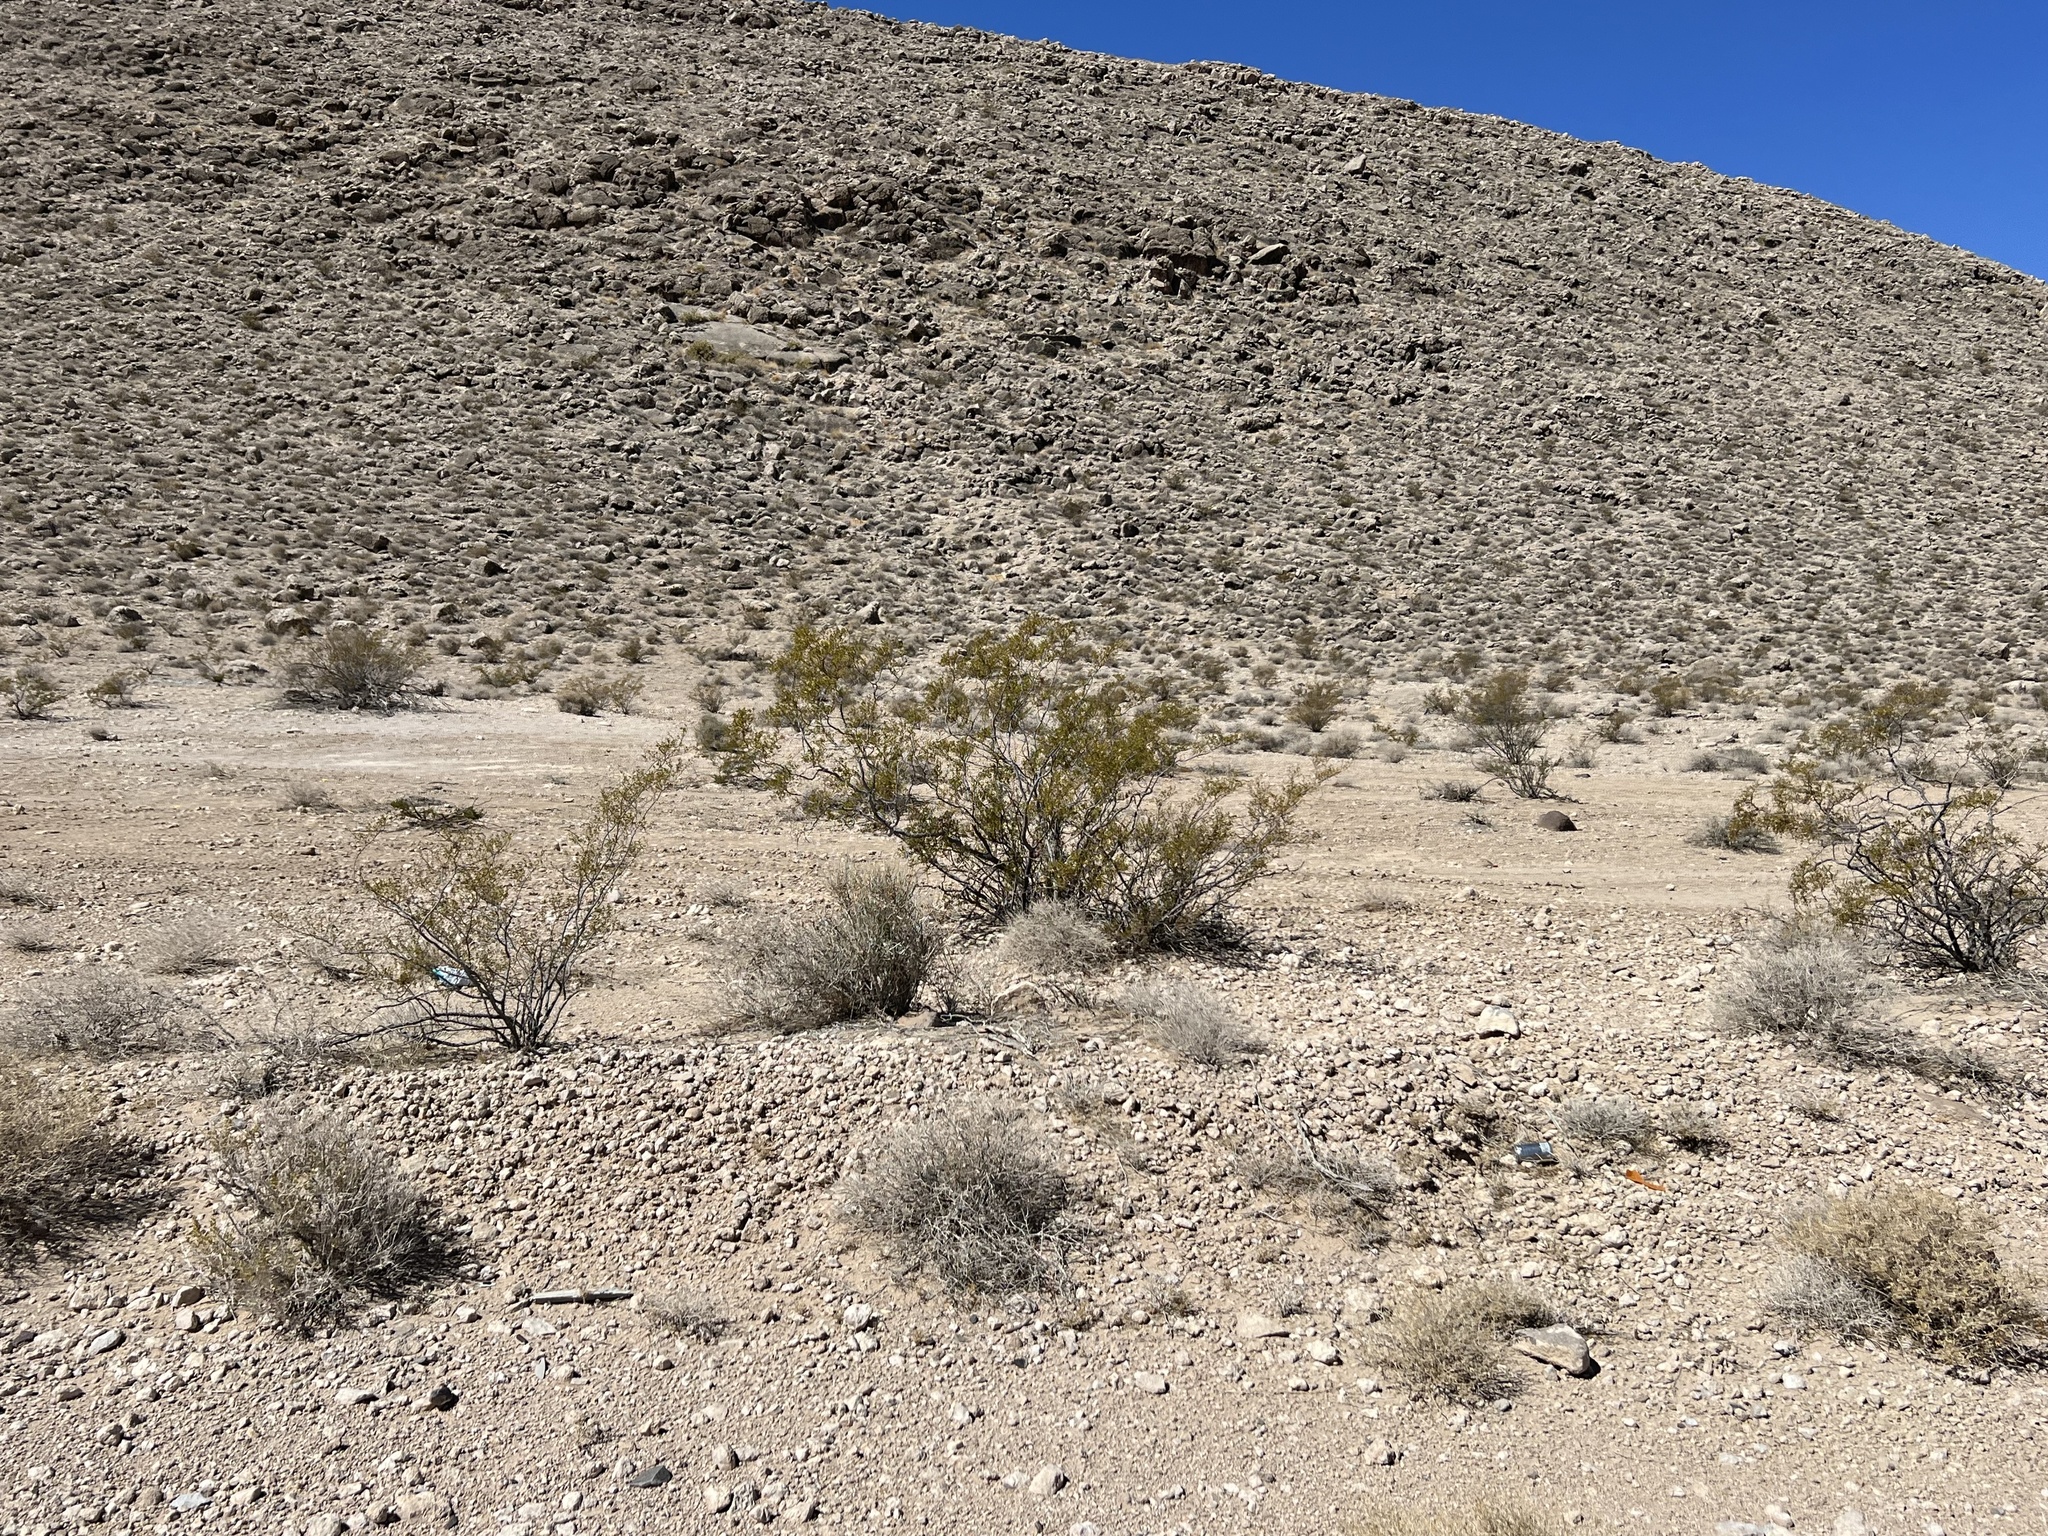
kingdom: Plantae
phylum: Tracheophyta
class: Magnoliopsida
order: Zygophyllales
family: Zygophyllaceae
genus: Larrea
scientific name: Larrea tridentata
